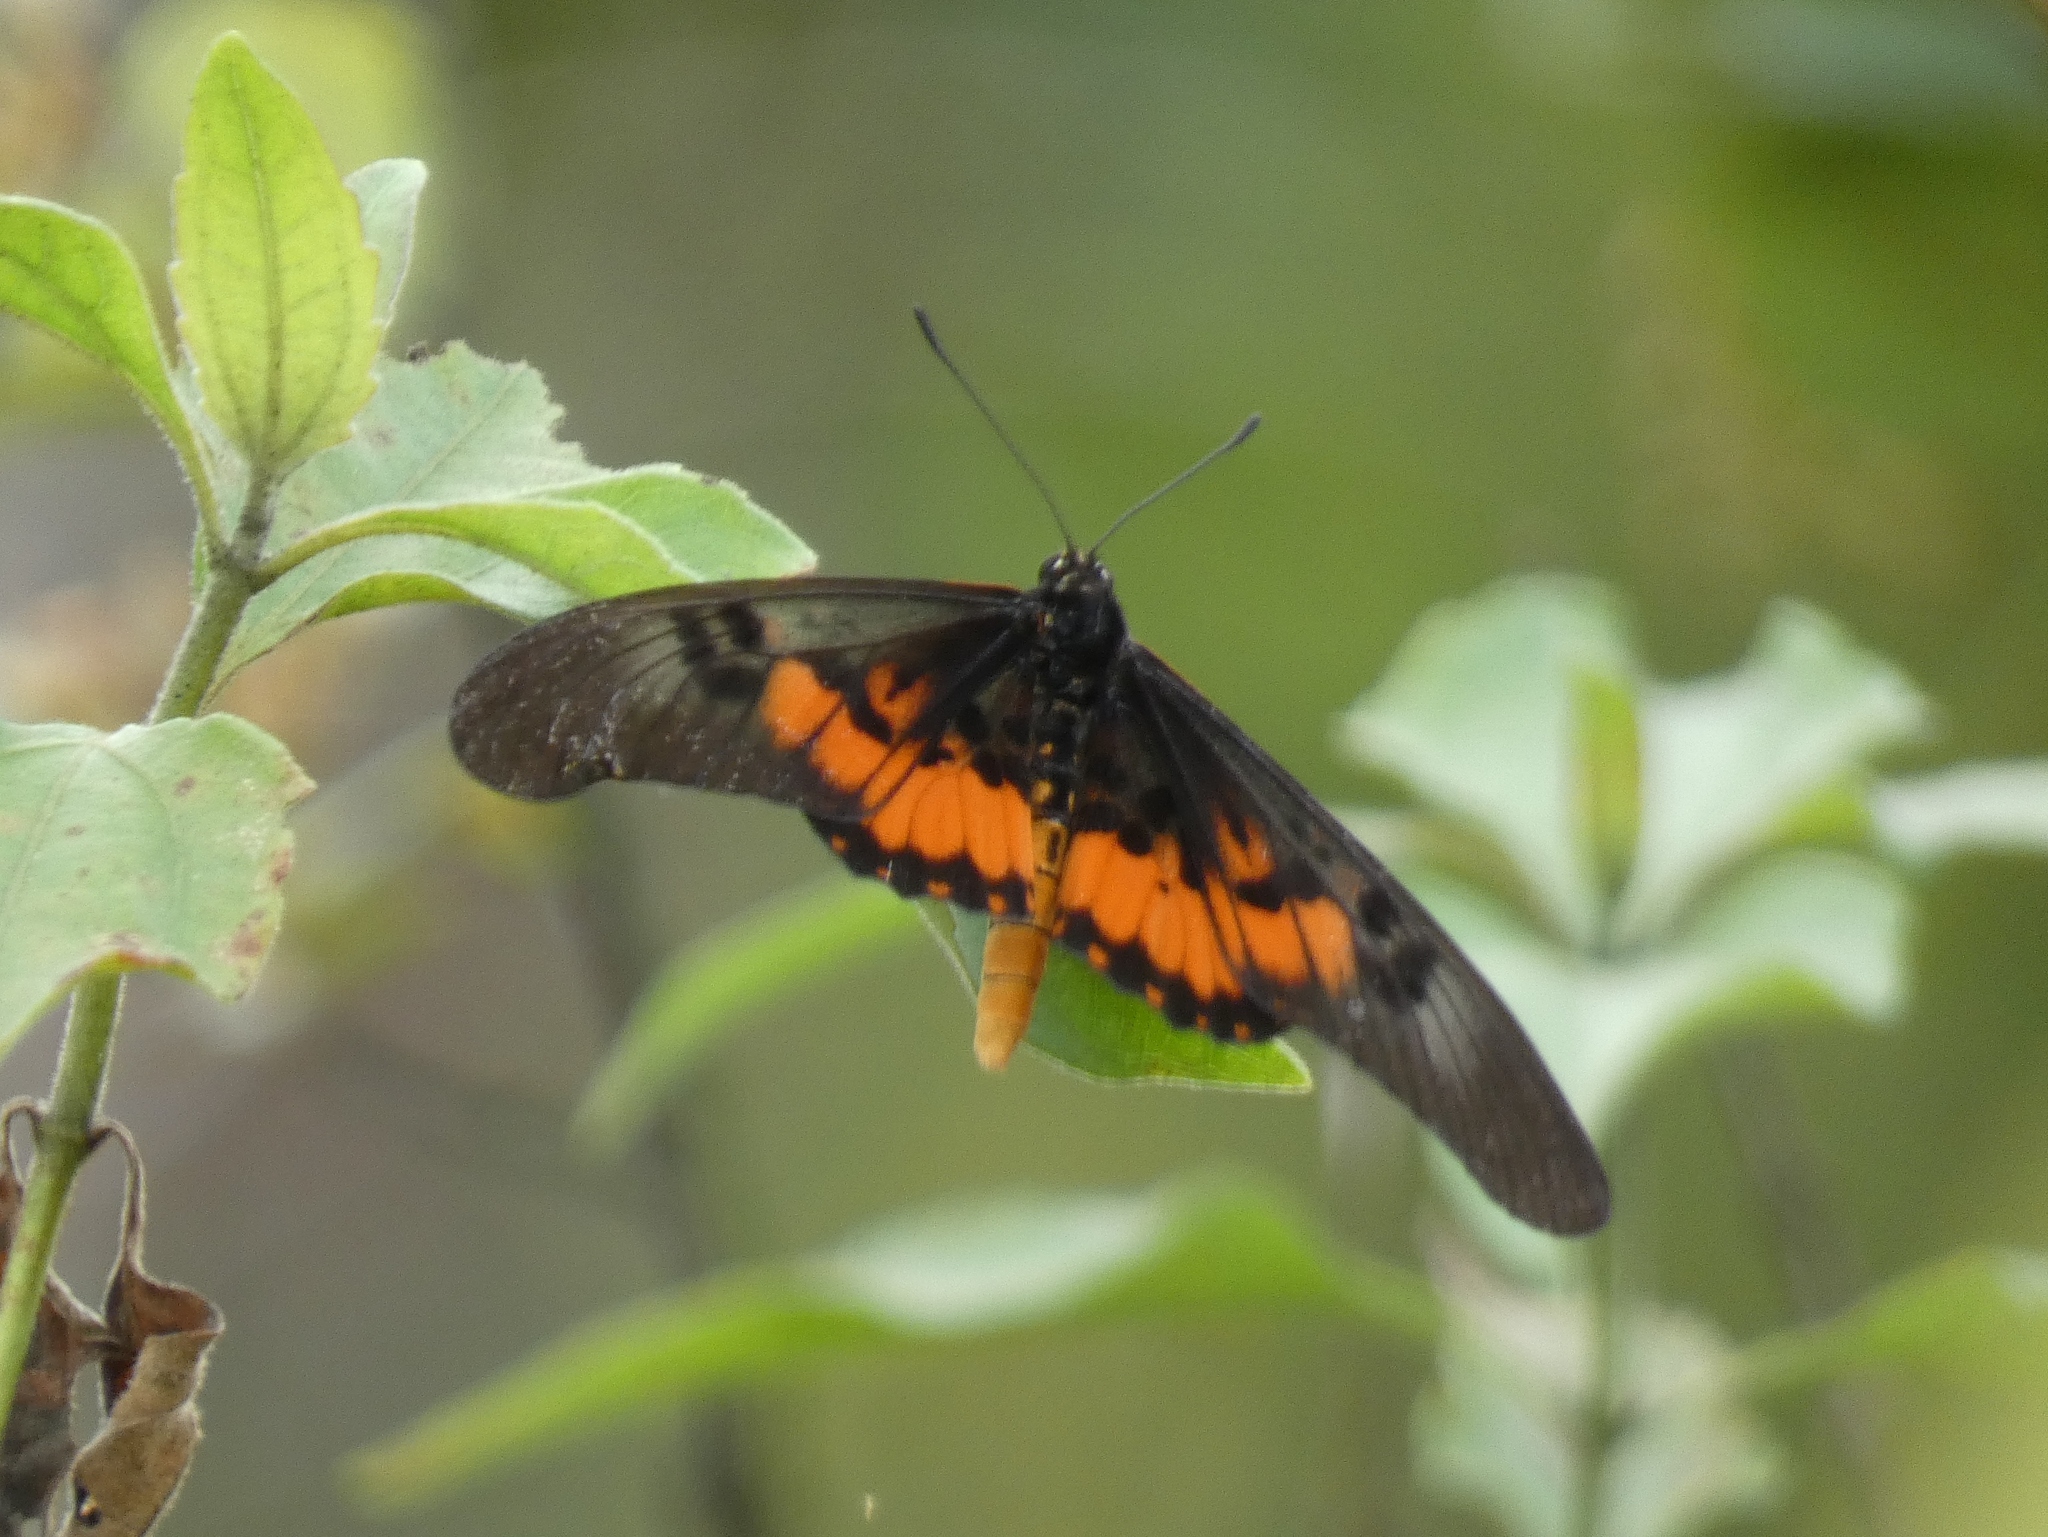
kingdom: Animalia
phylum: Arthropoda
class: Insecta
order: Lepidoptera
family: Nymphalidae
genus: Acraea
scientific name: Acraea
